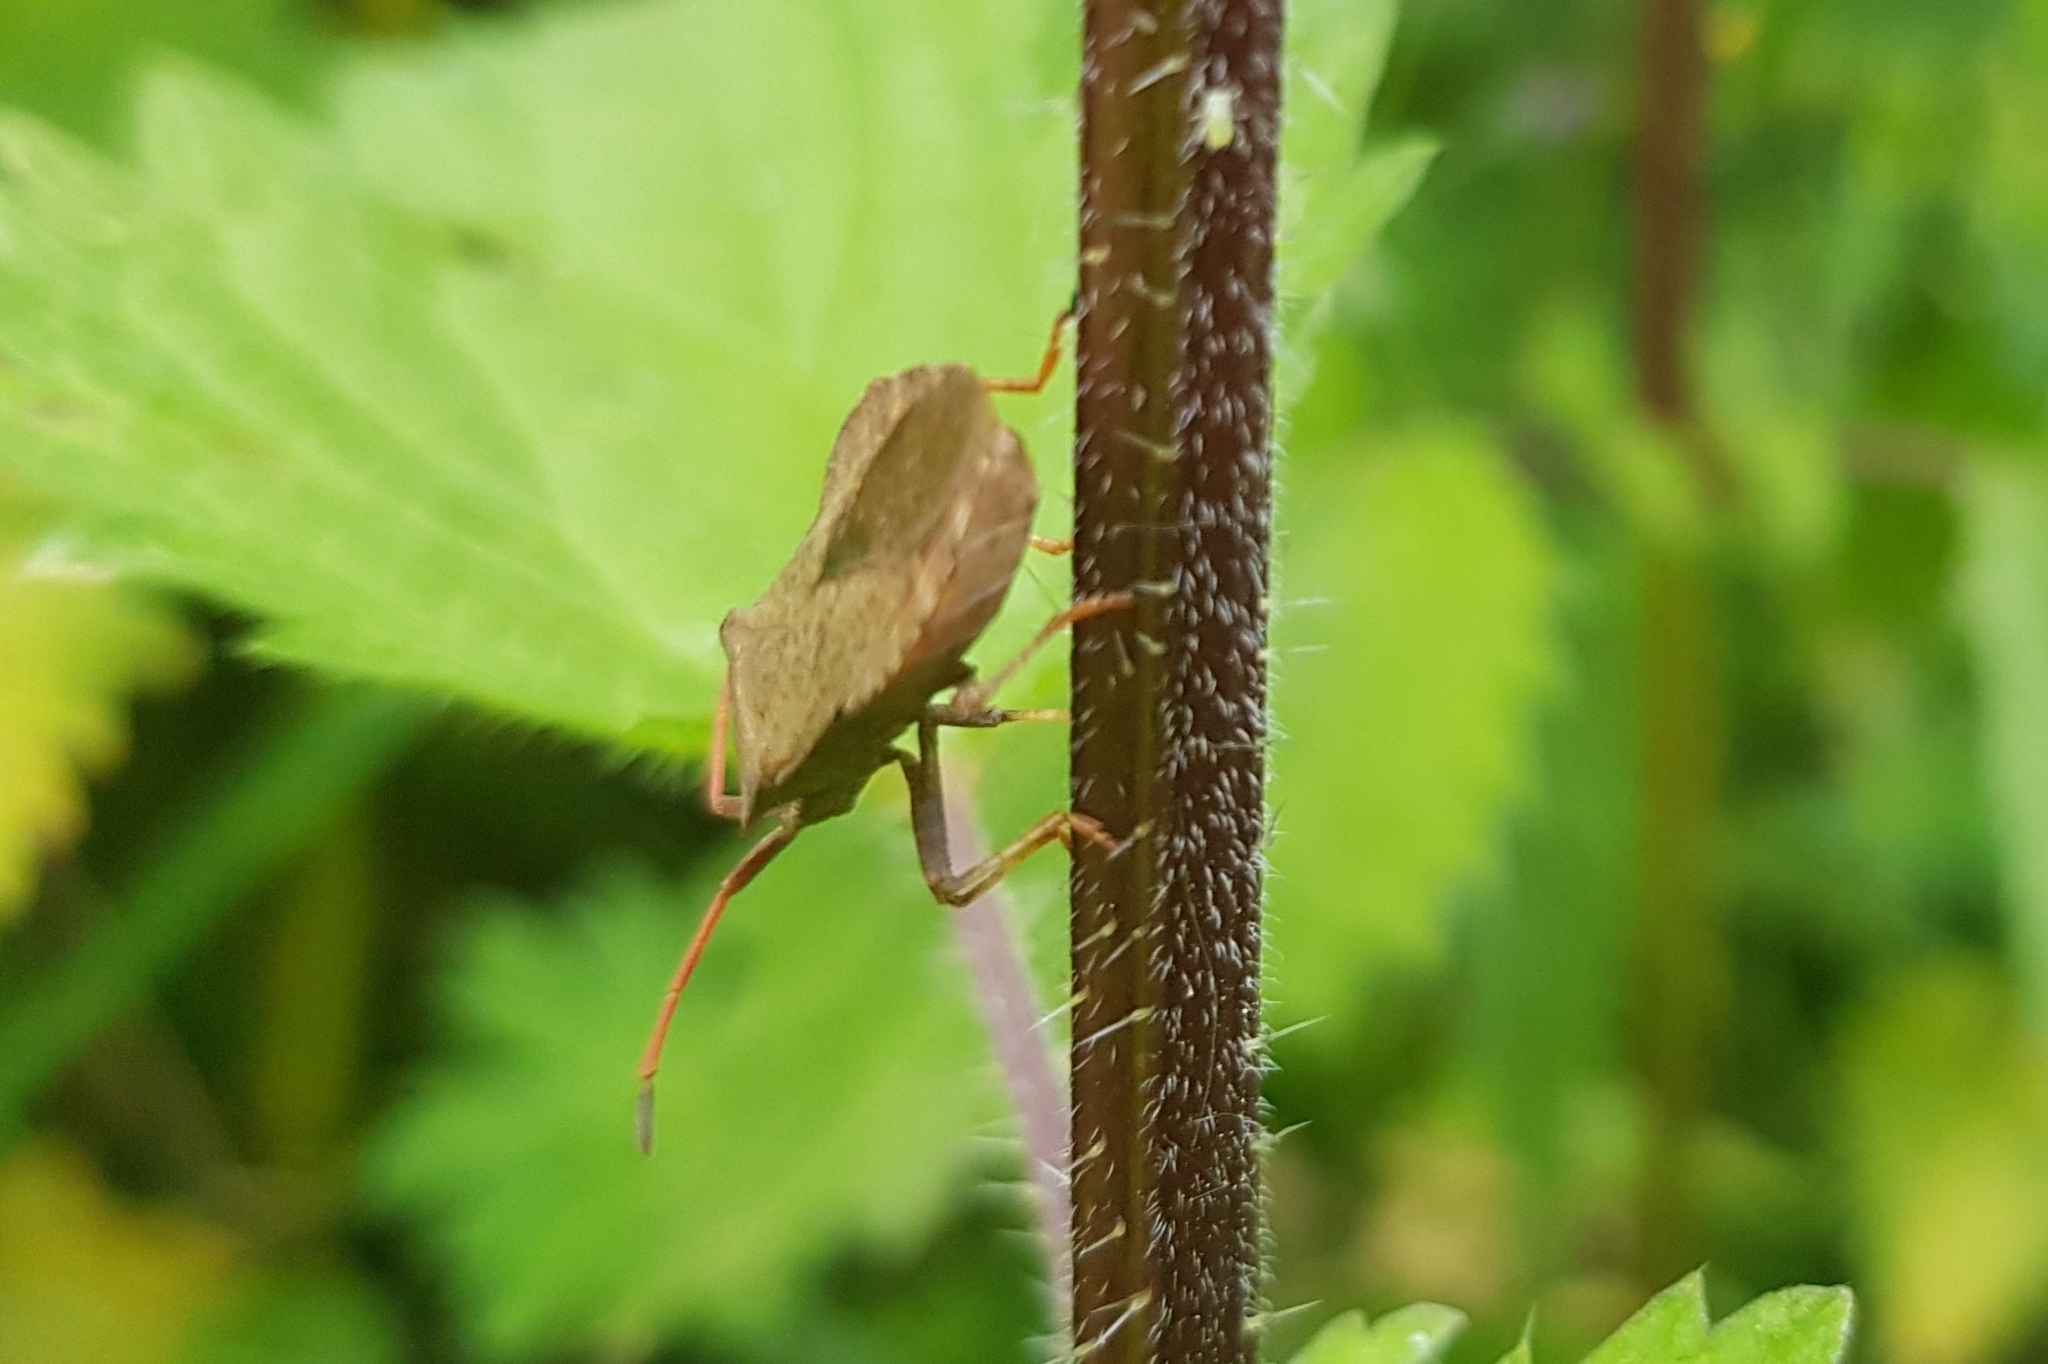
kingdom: Animalia
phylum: Arthropoda
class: Insecta
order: Hemiptera
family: Coreidae
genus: Coreus
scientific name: Coreus marginatus
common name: Dock bug
